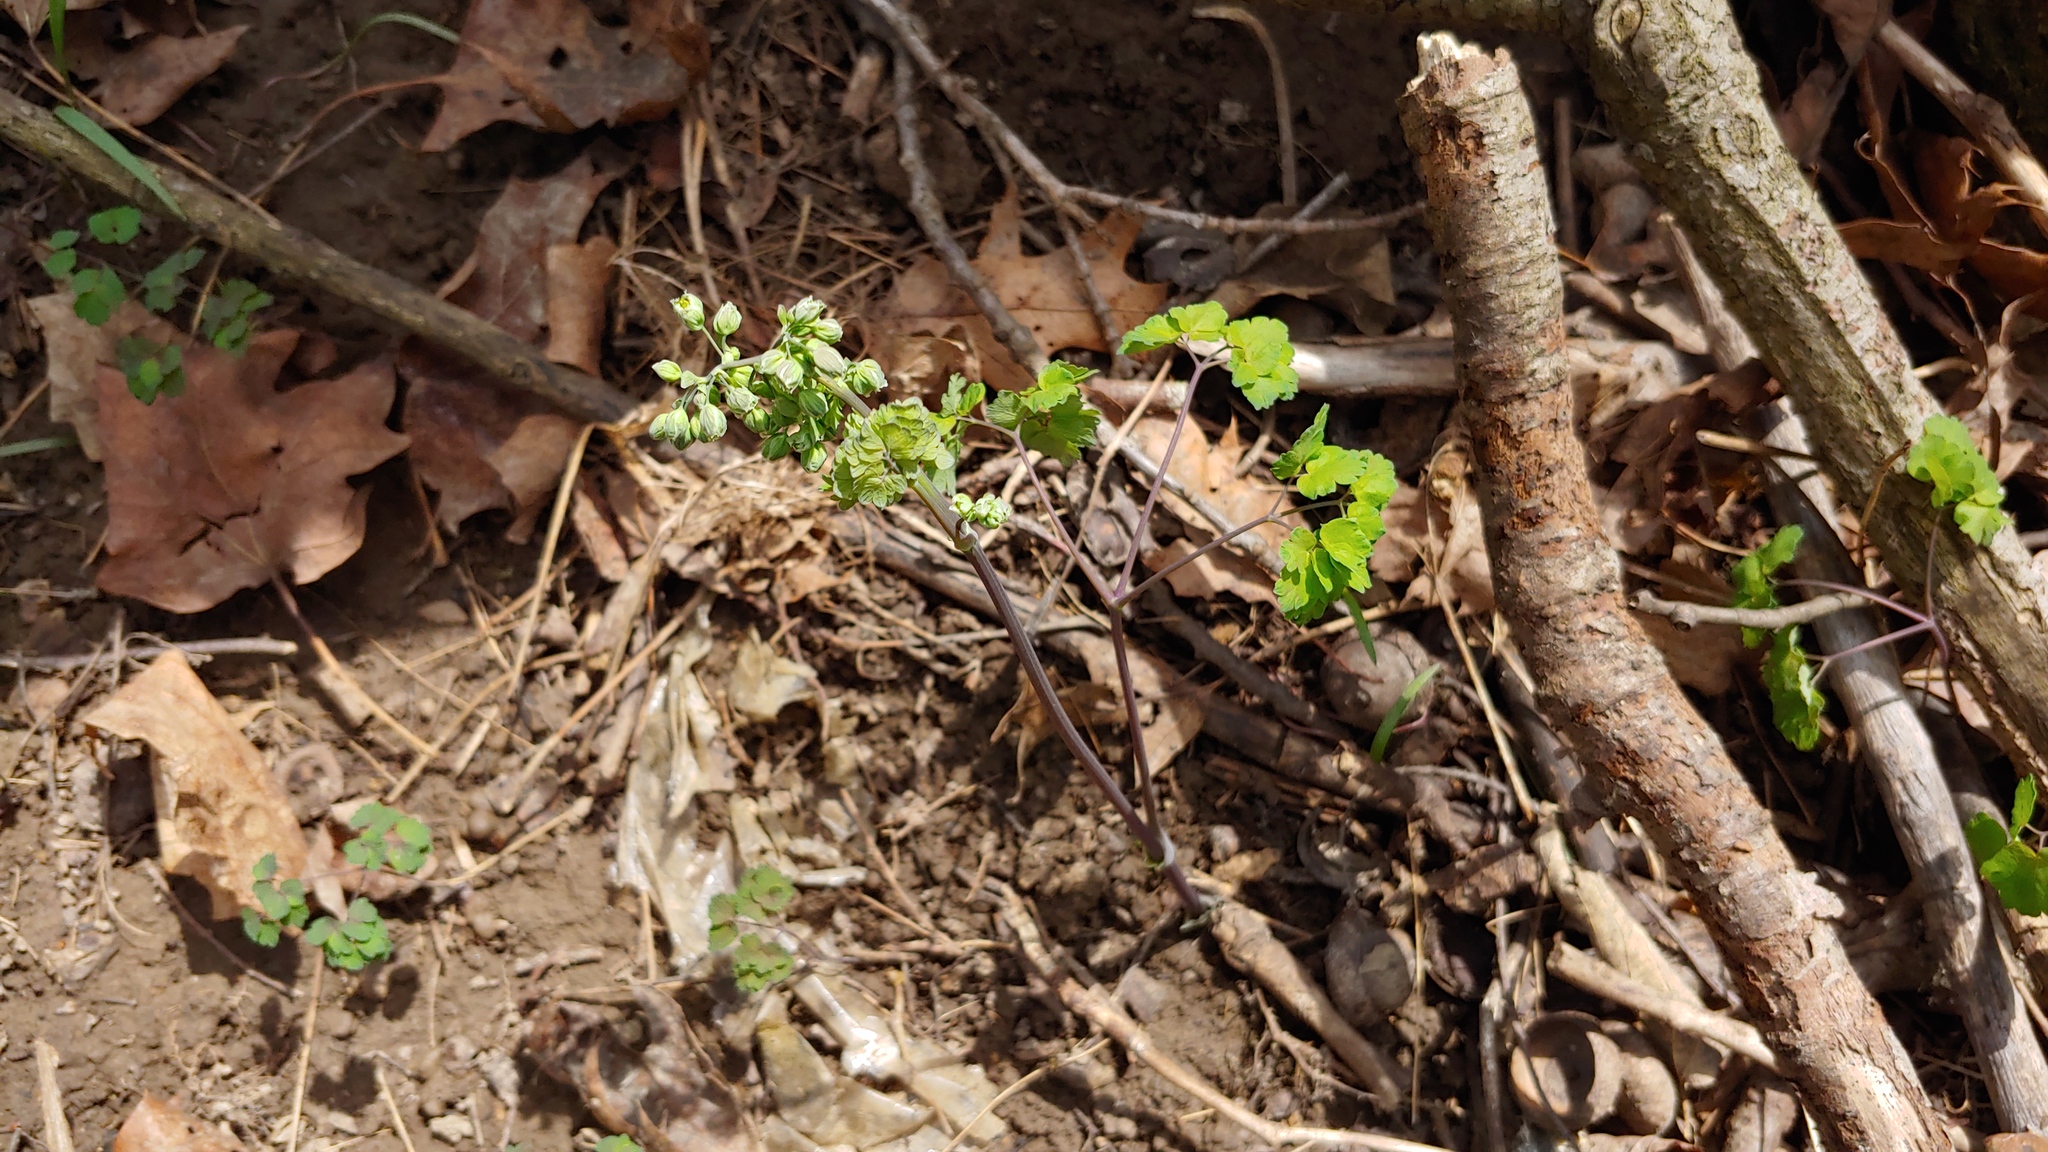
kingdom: Plantae
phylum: Tracheophyta
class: Magnoliopsida
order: Ranunculales
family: Ranunculaceae
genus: Thalictrum
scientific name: Thalictrum dioicum
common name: Early meadow-rue
